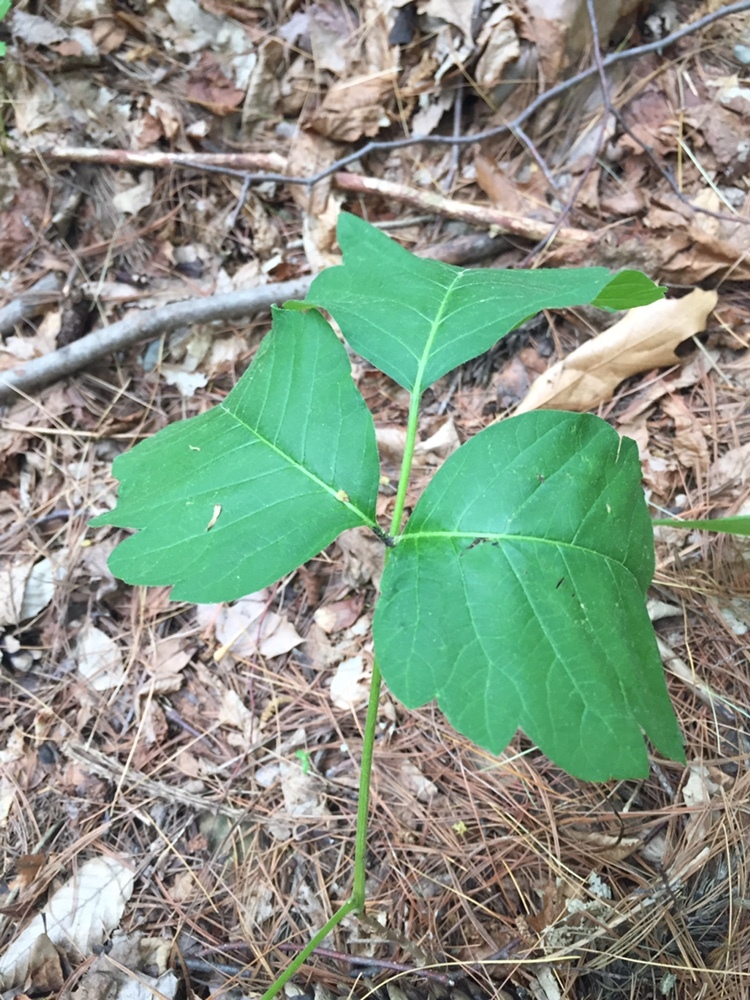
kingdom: Plantae
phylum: Tracheophyta
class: Magnoliopsida
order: Sapindales
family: Anacardiaceae
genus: Toxicodendron
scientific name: Toxicodendron radicans
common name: Poison ivy
